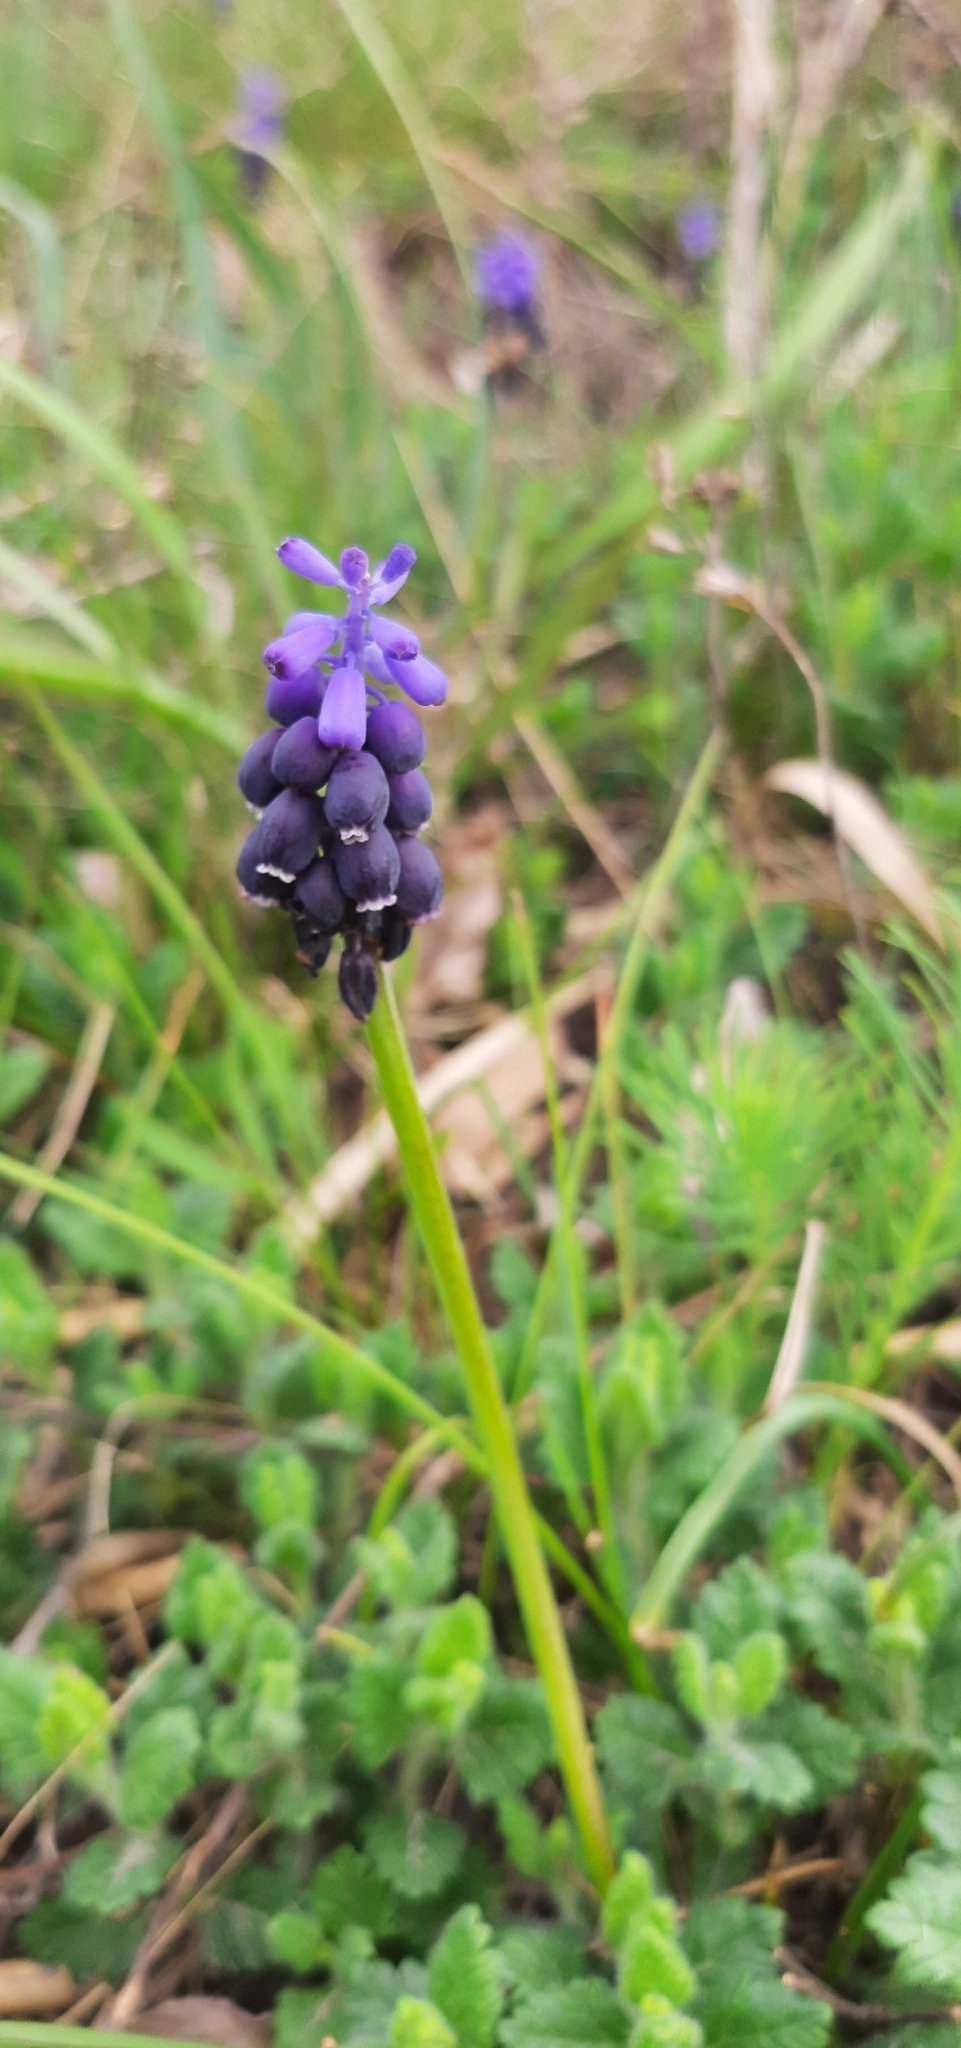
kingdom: Plantae
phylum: Tracheophyta
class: Liliopsida
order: Asparagales
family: Asparagaceae
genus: Muscari
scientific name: Muscari neglectum
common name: Grape-hyacinth
